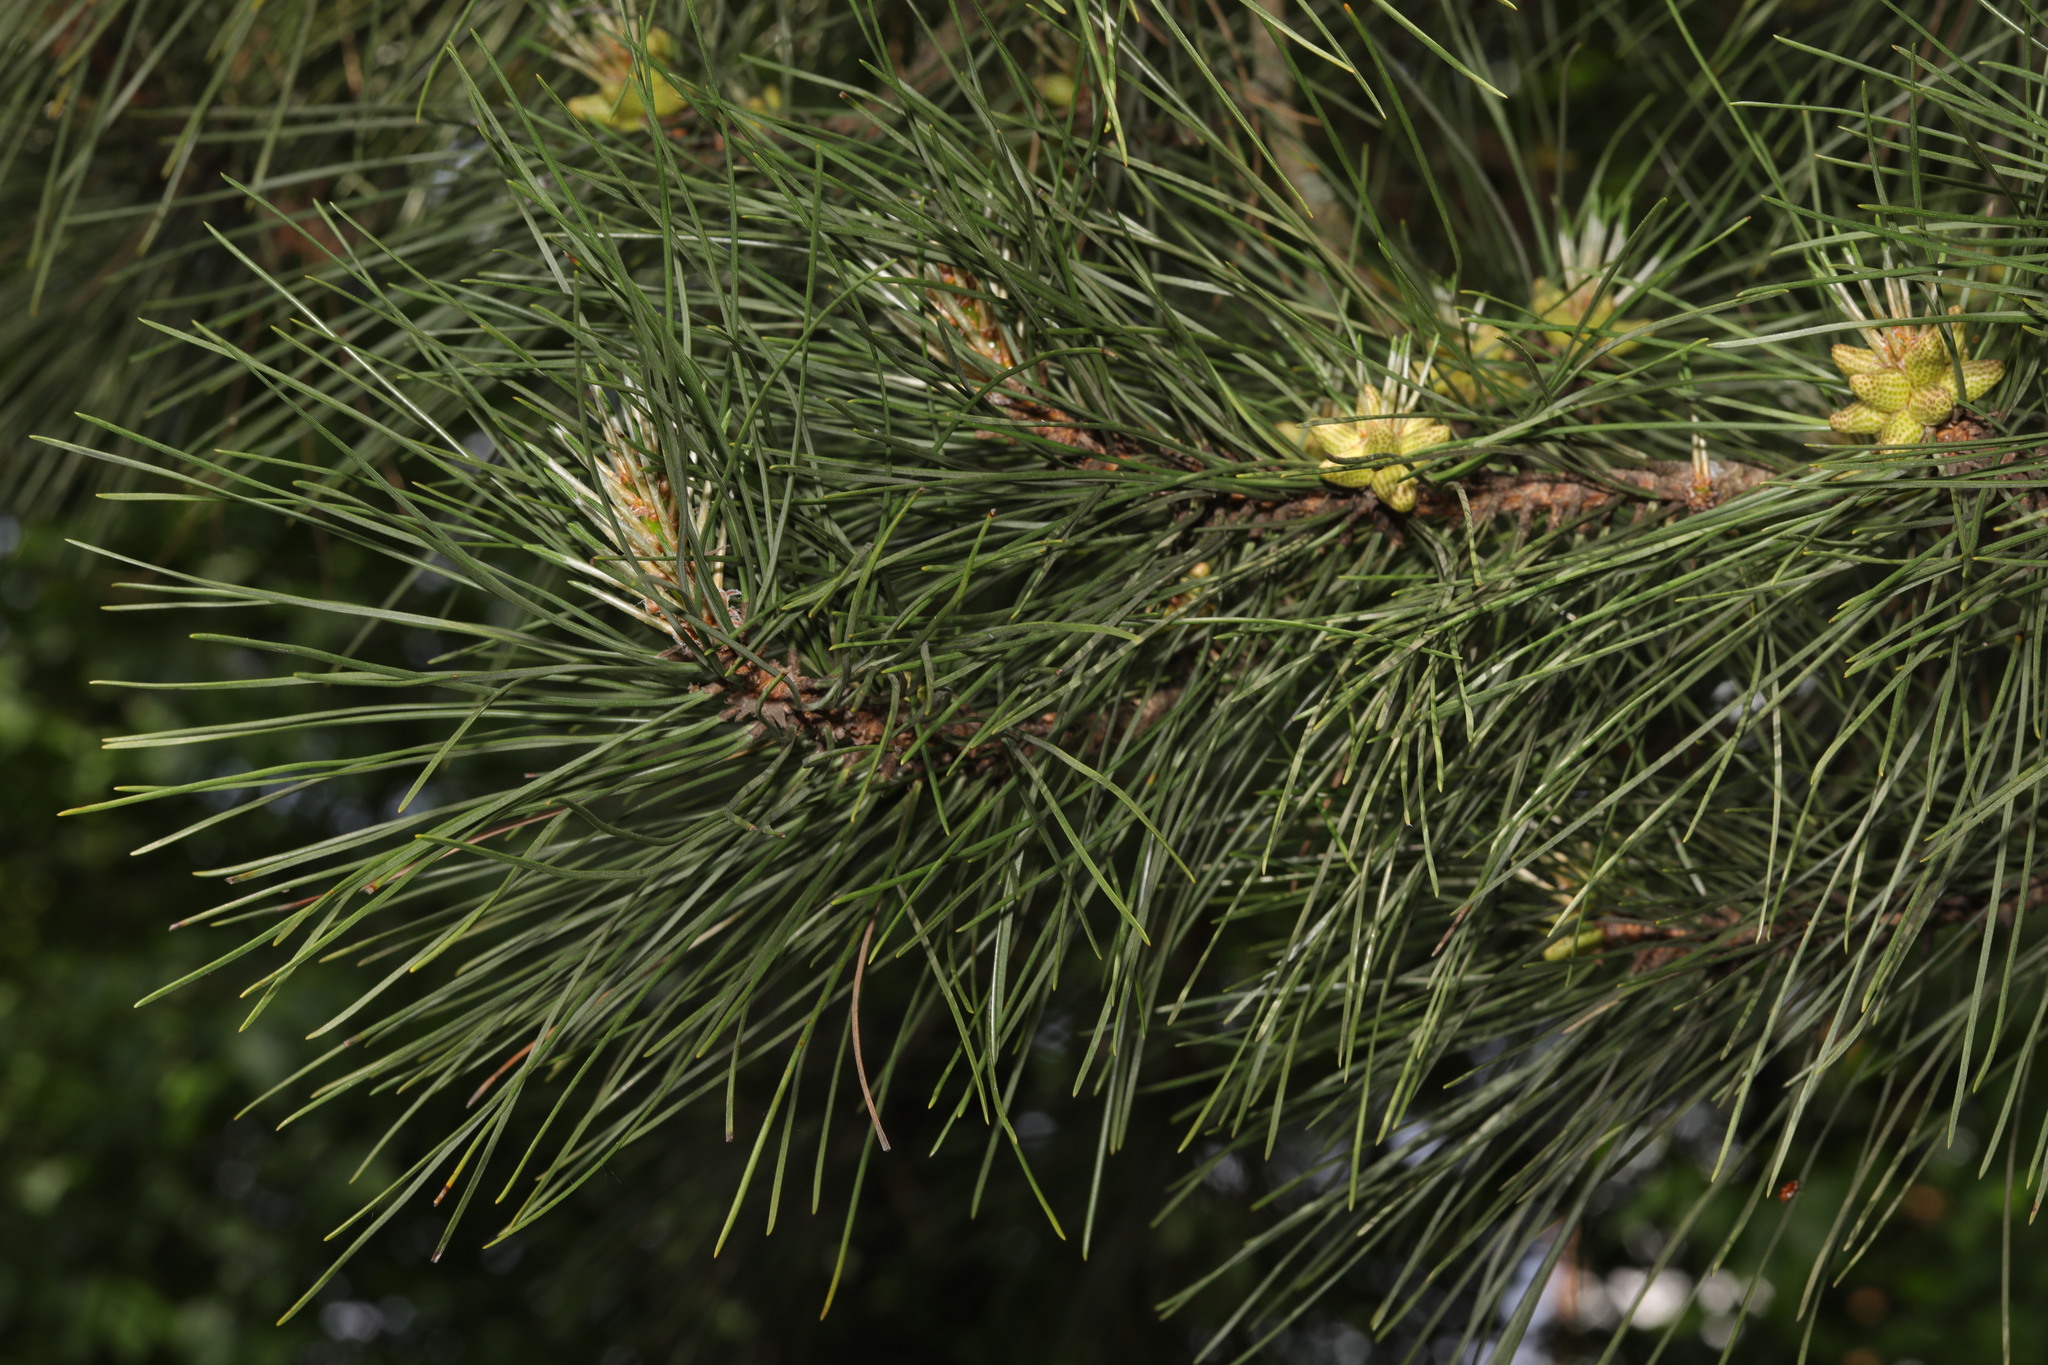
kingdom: Plantae
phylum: Tracheophyta
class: Pinopsida
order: Pinales
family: Pinaceae
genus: Pinus
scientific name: Pinus sylvestris
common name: Scots pine
